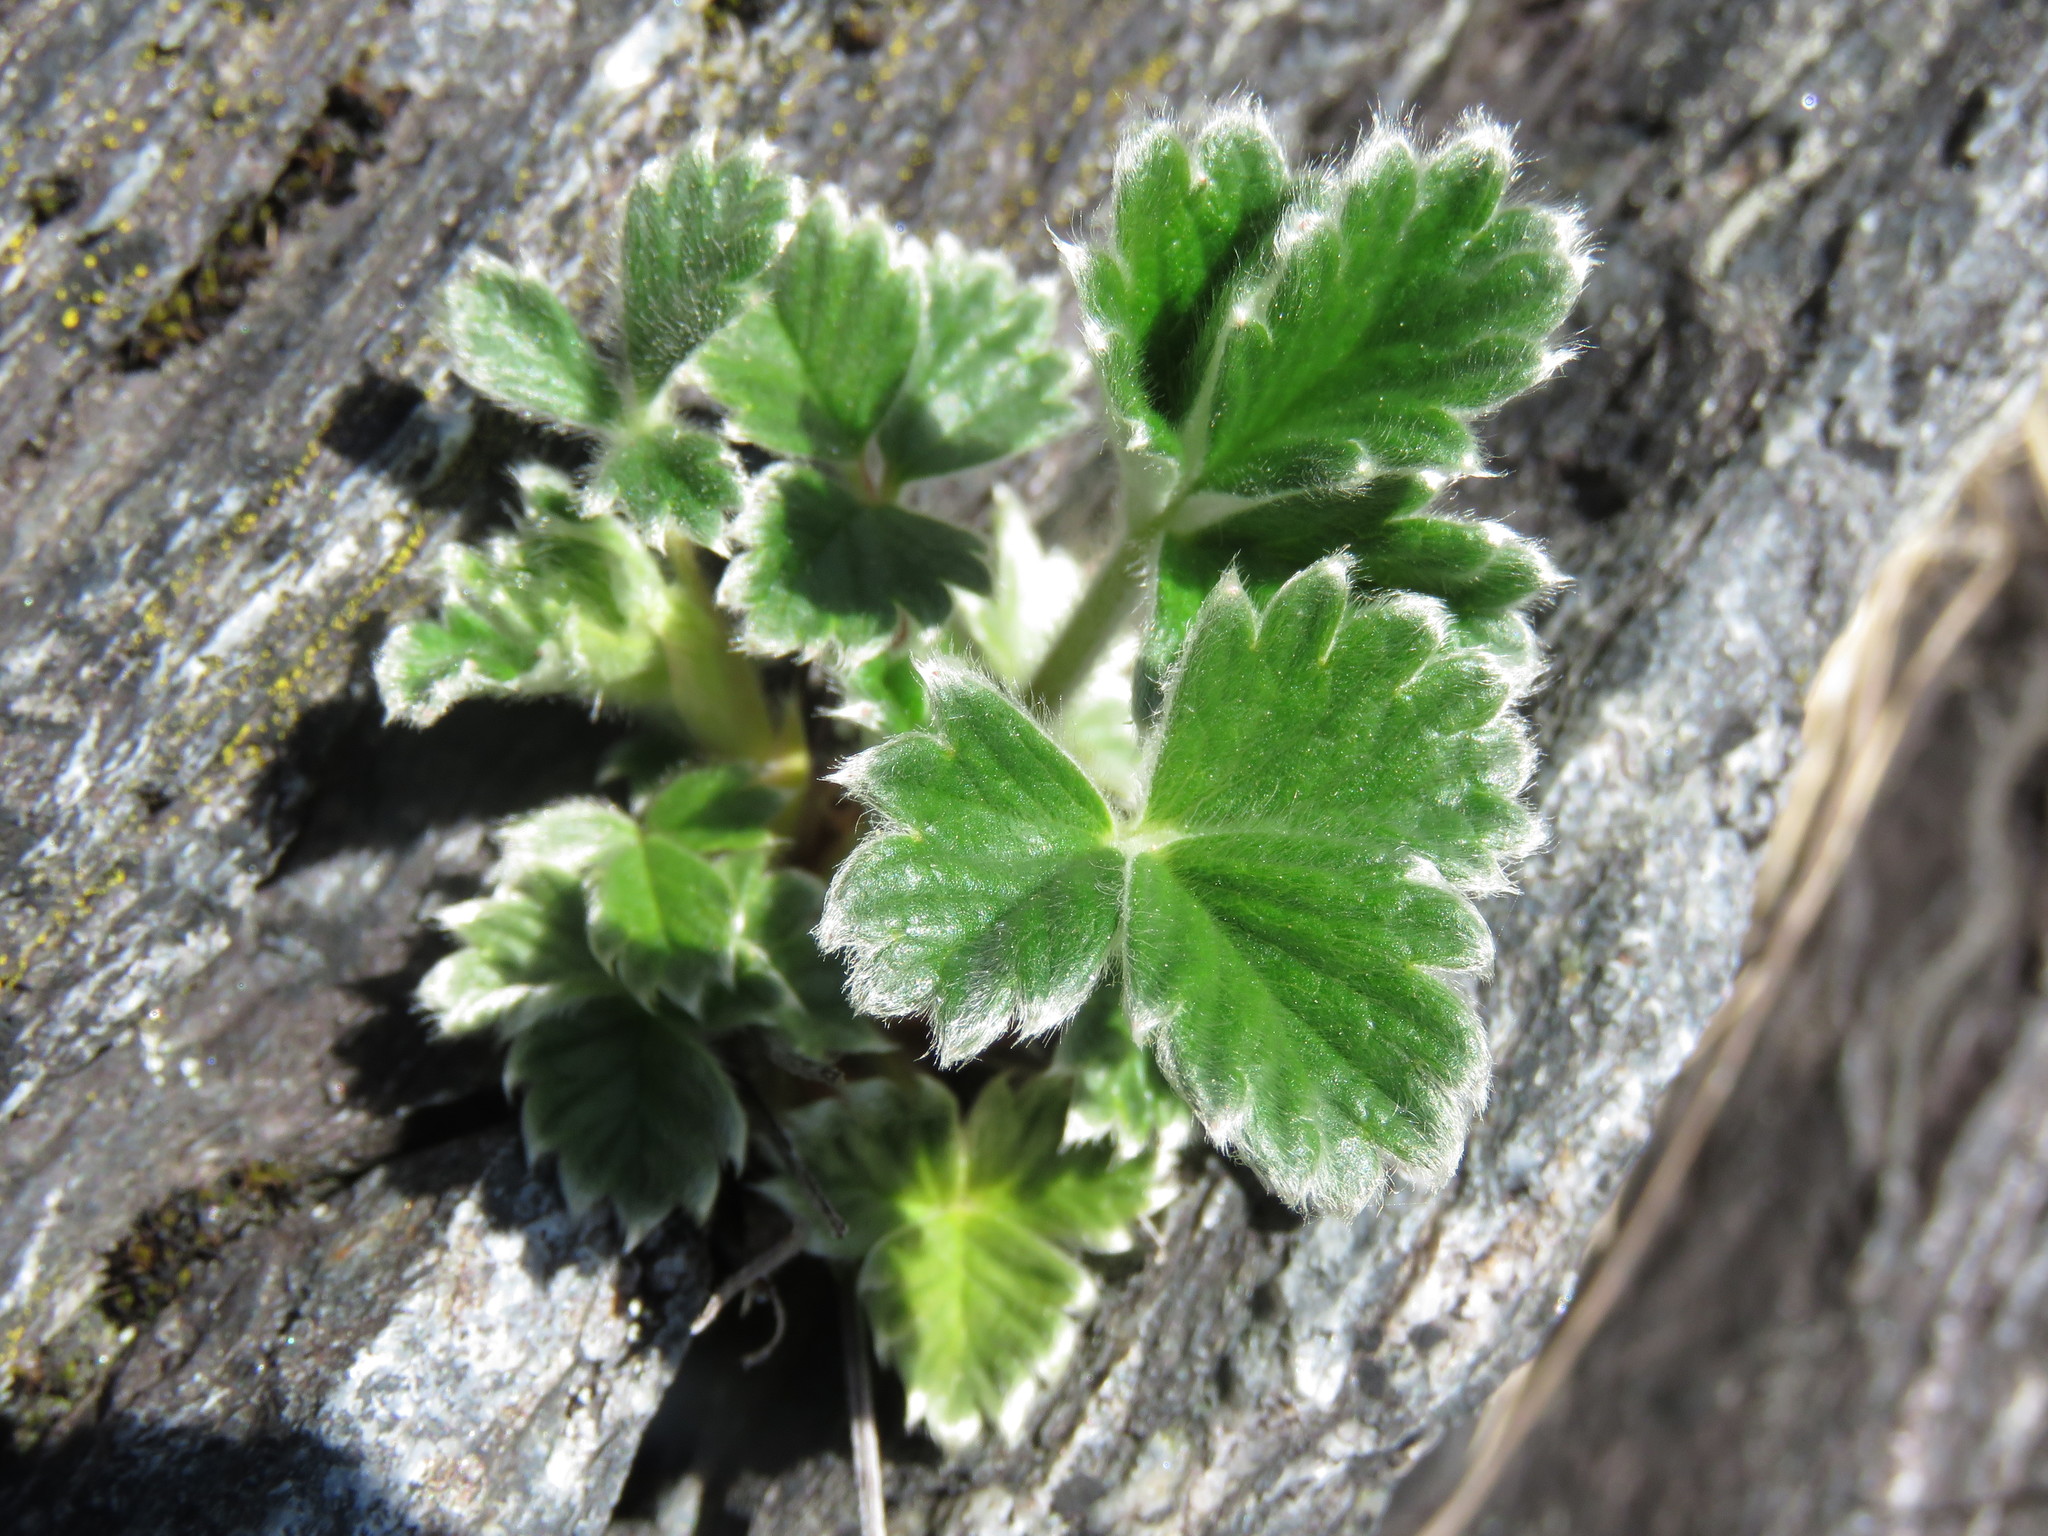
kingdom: Plantae
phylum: Tracheophyta
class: Magnoliopsida
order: Rosales
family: Rosaceae
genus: Potentilla
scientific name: Potentilla villosa
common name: Northern cinquefoil
